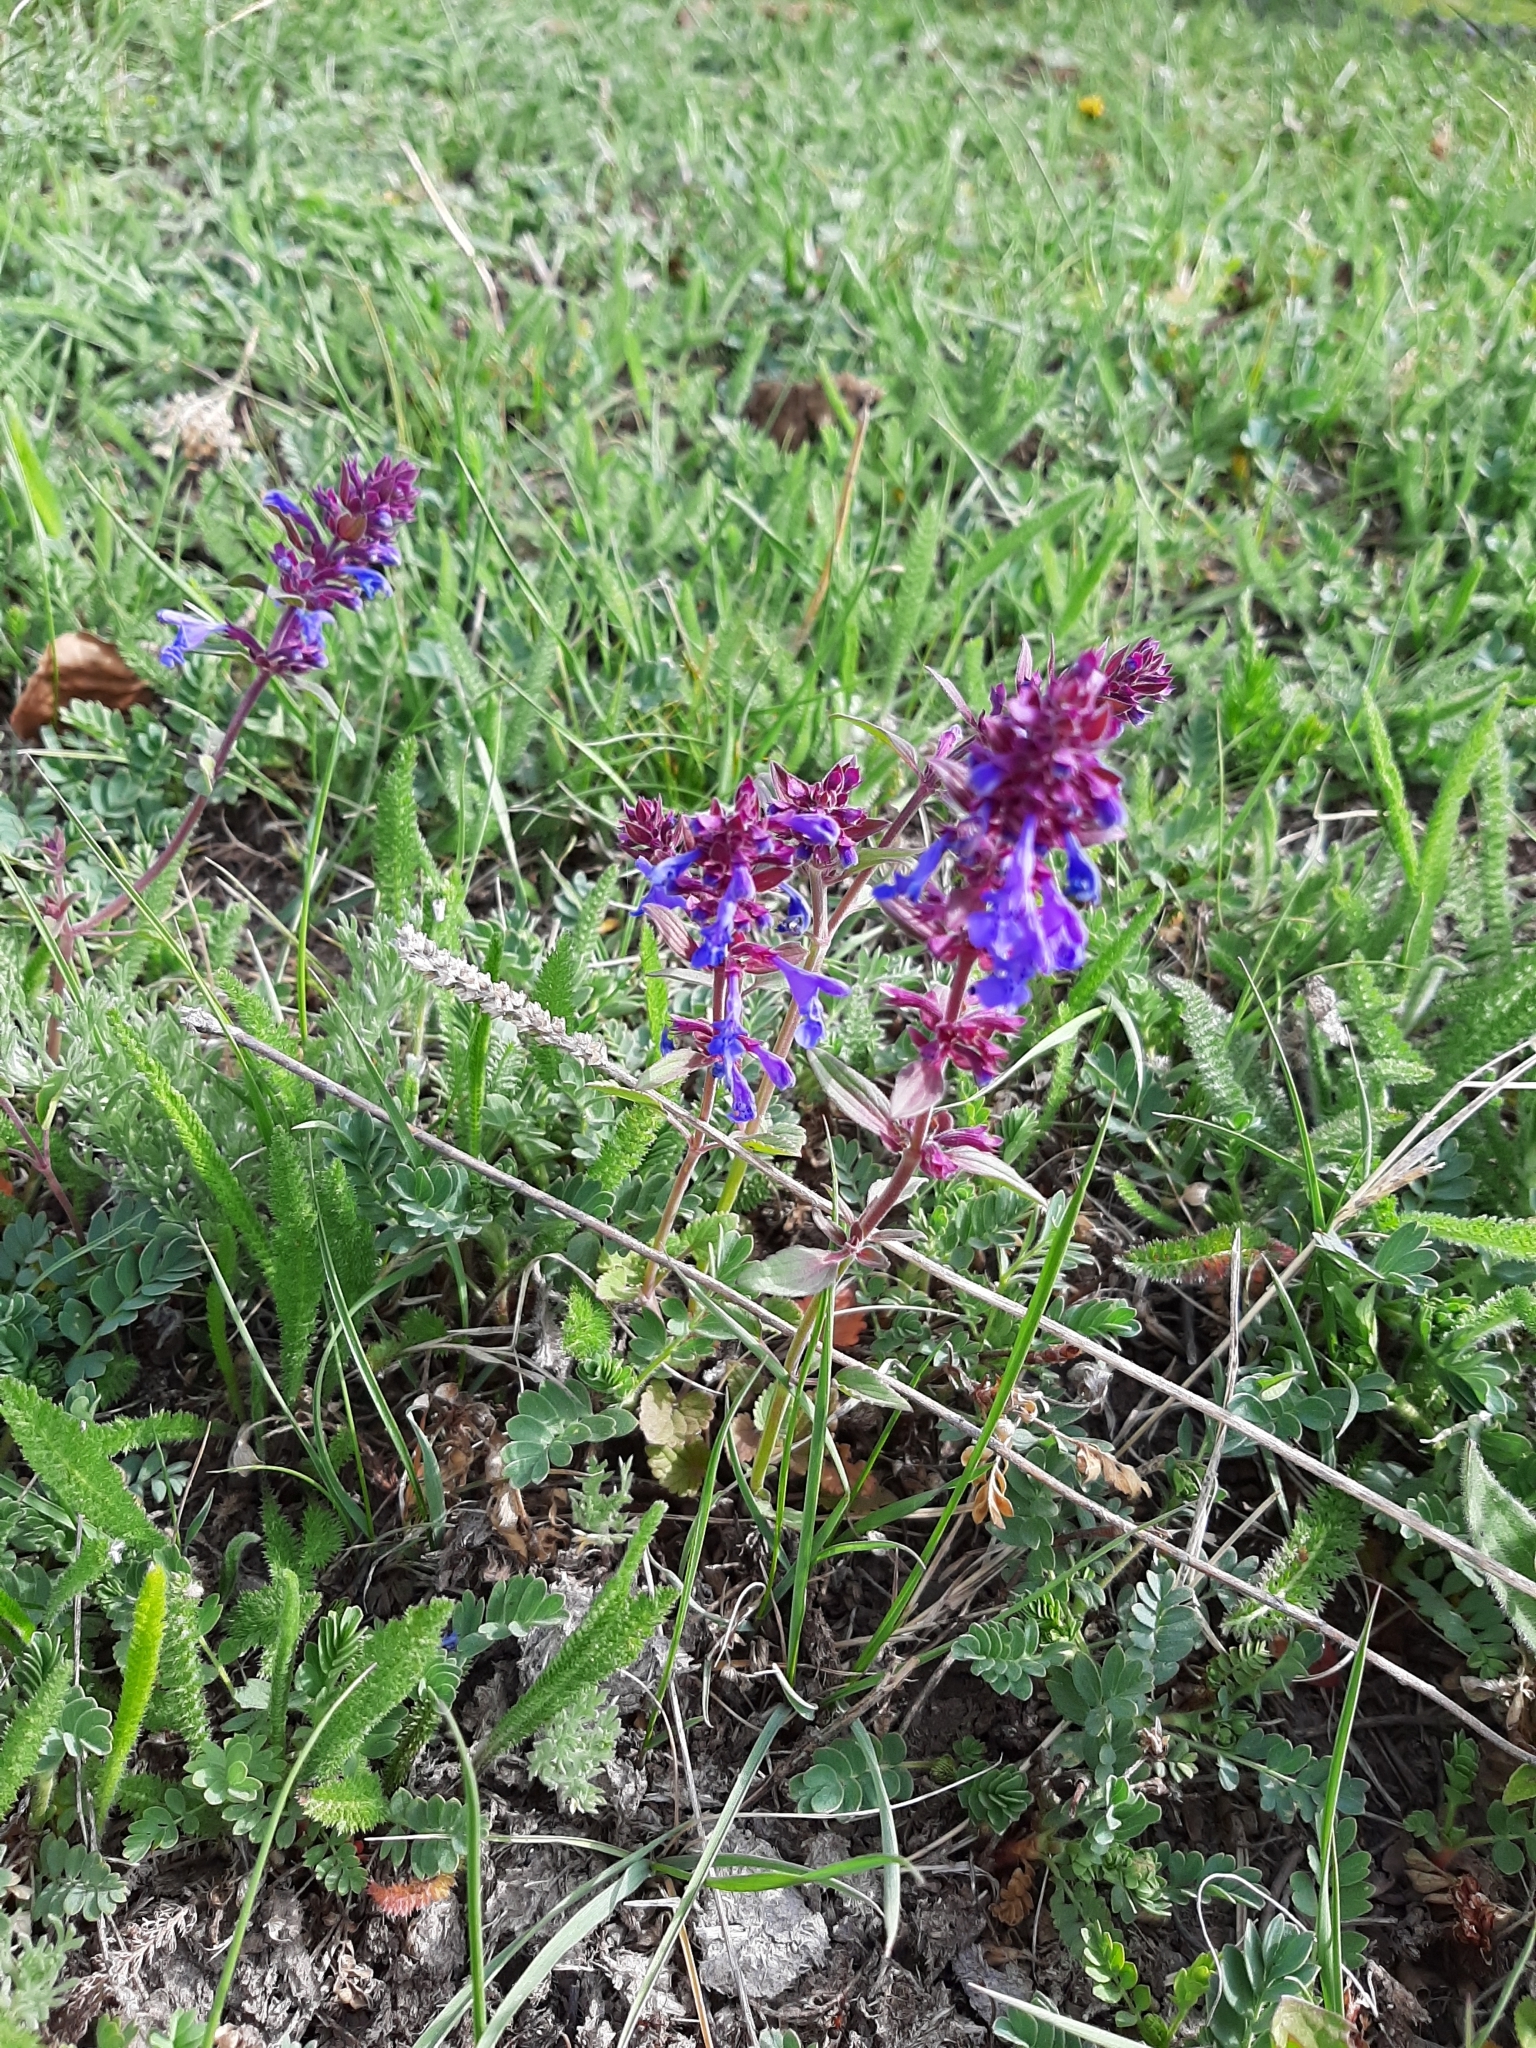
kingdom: Plantae
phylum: Tracheophyta
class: Magnoliopsida
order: Lamiales
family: Lamiaceae
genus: Dracocephalum
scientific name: Dracocephalum nutans
